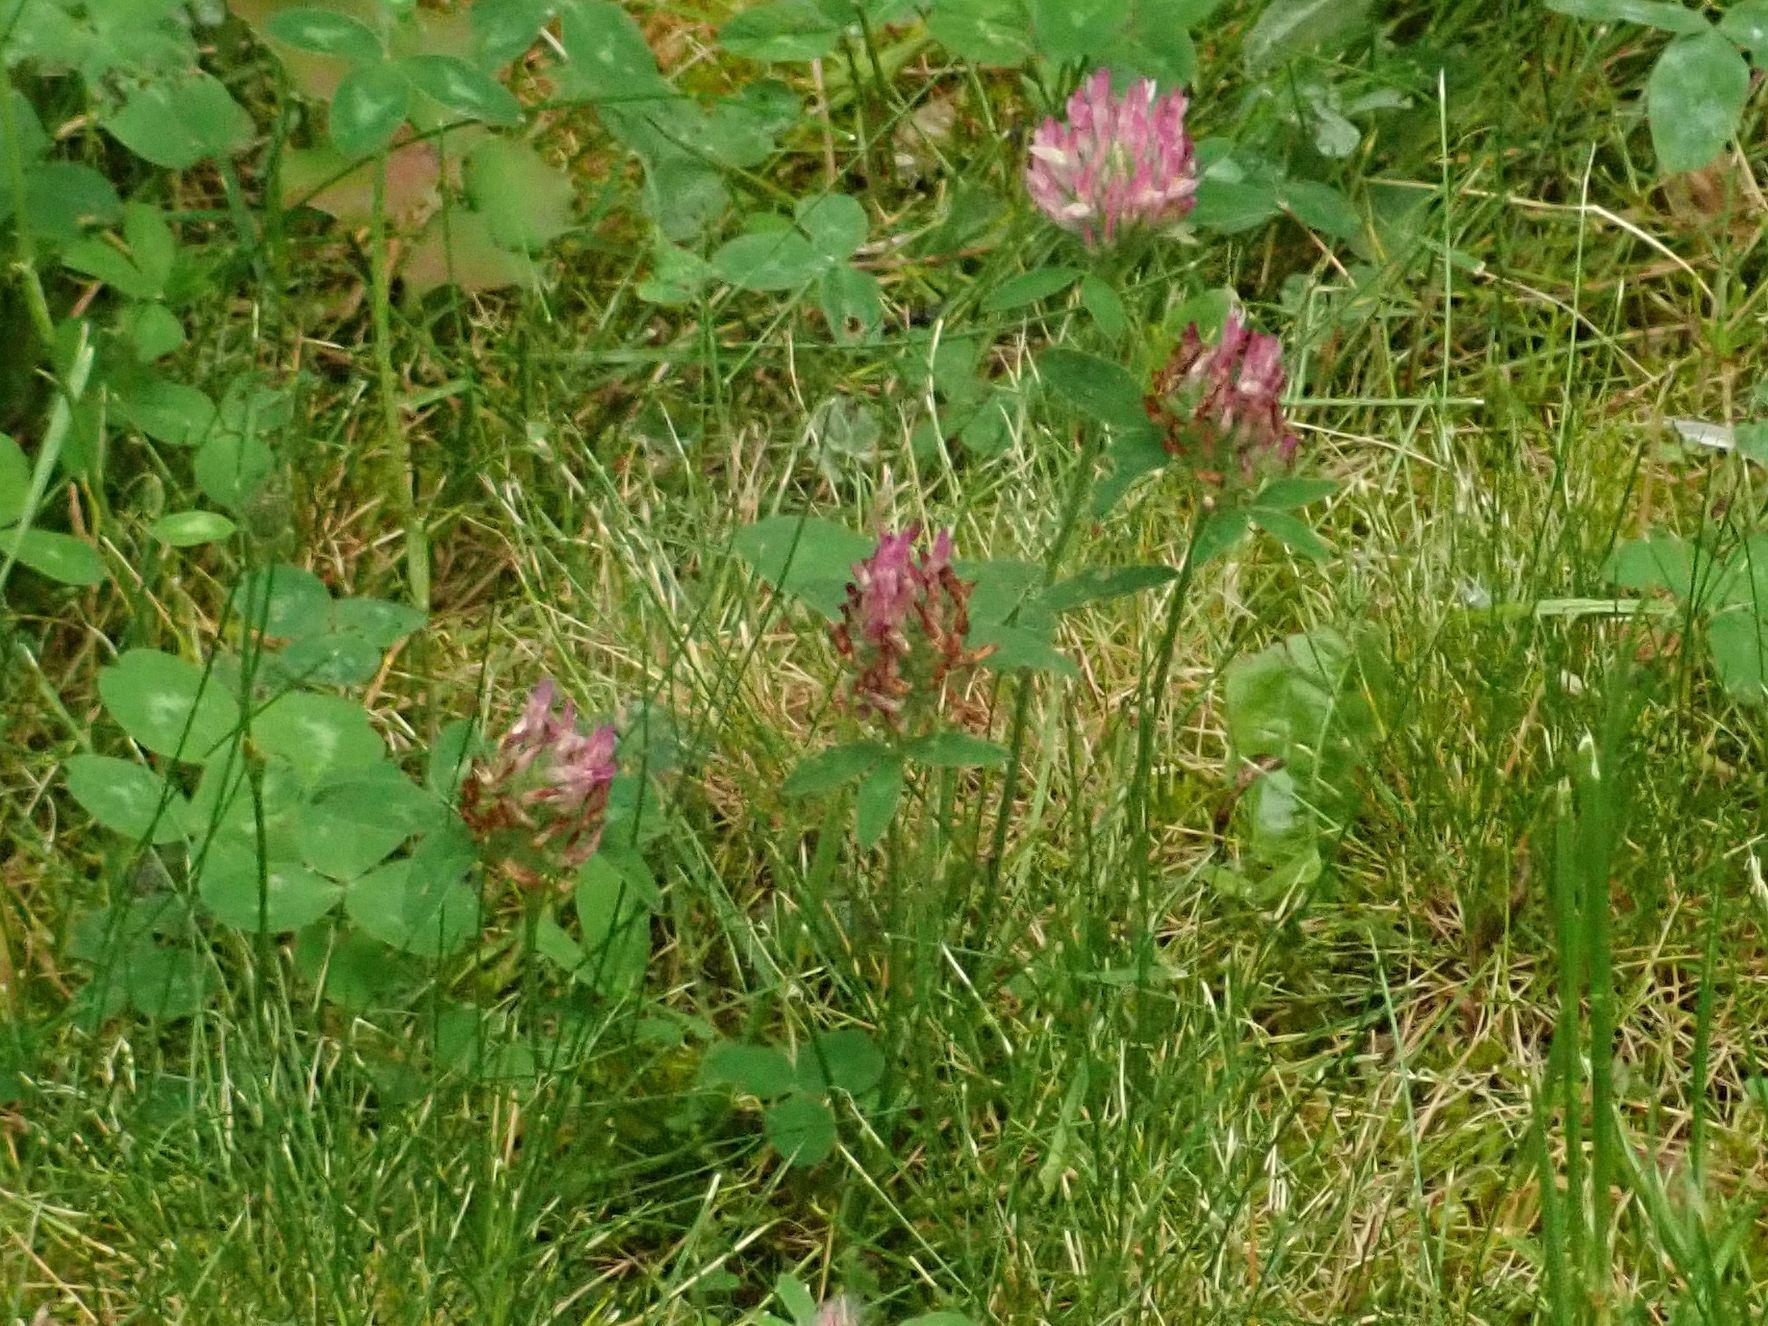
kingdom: Plantae
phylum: Tracheophyta
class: Magnoliopsida
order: Fabales
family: Fabaceae
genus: Trifolium
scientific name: Trifolium pratense
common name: Red clover
